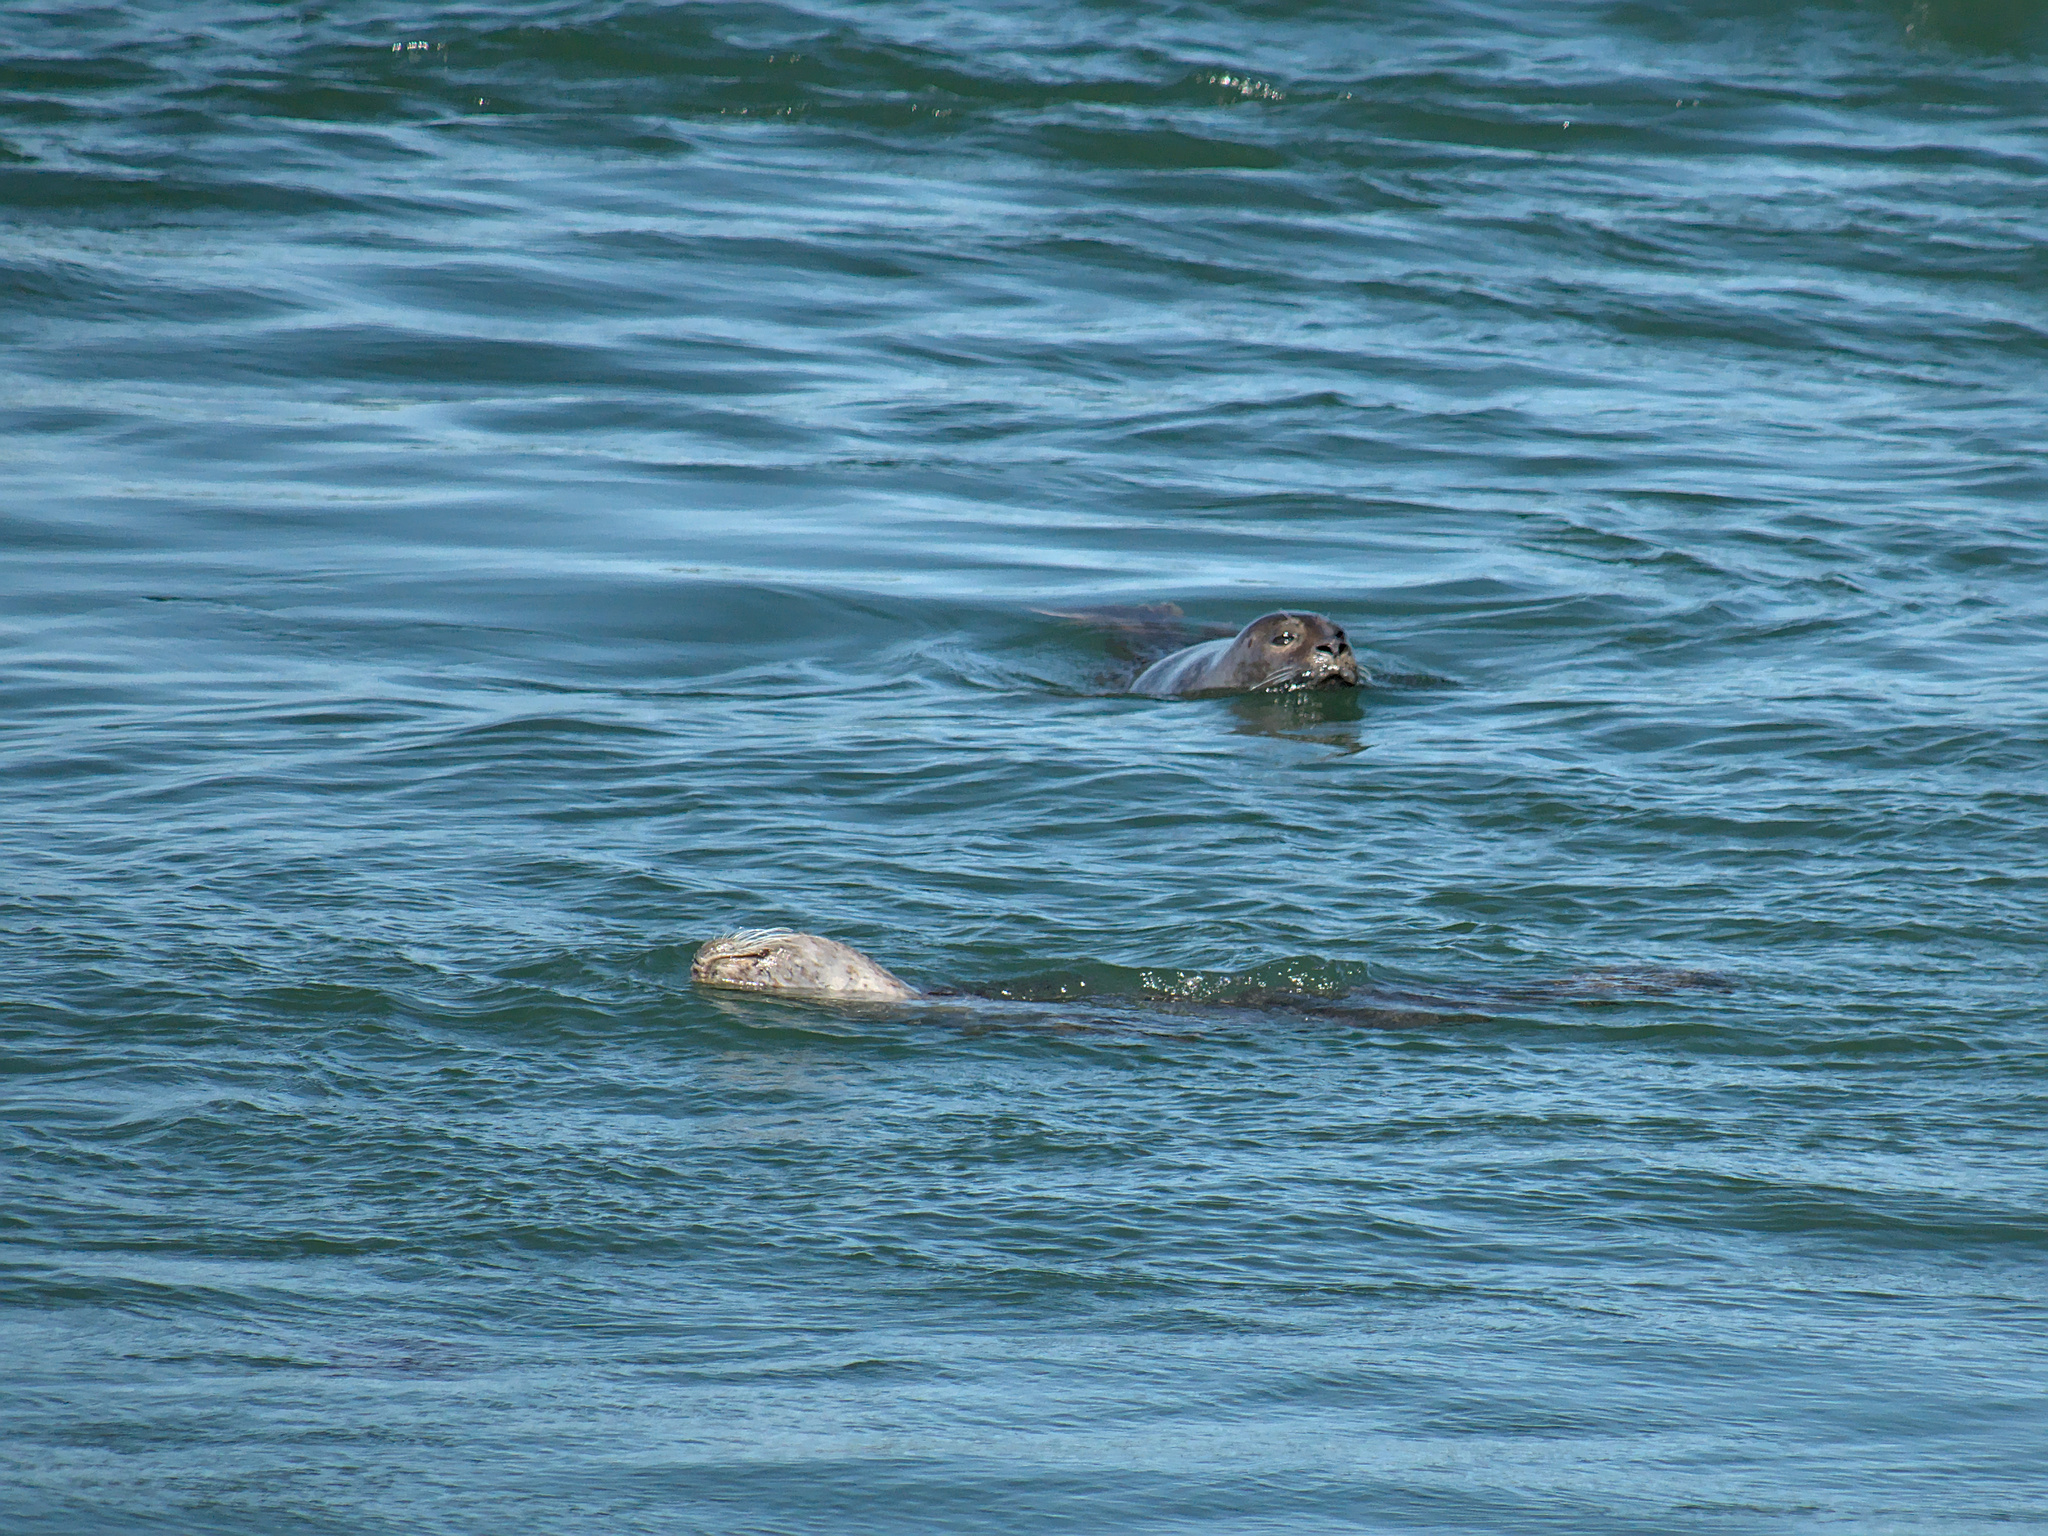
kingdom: Animalia
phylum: Chordata
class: Mammalia
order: Carnivora
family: Phocidae
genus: Phoca
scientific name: Phoca vitulina
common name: Harbor seal
